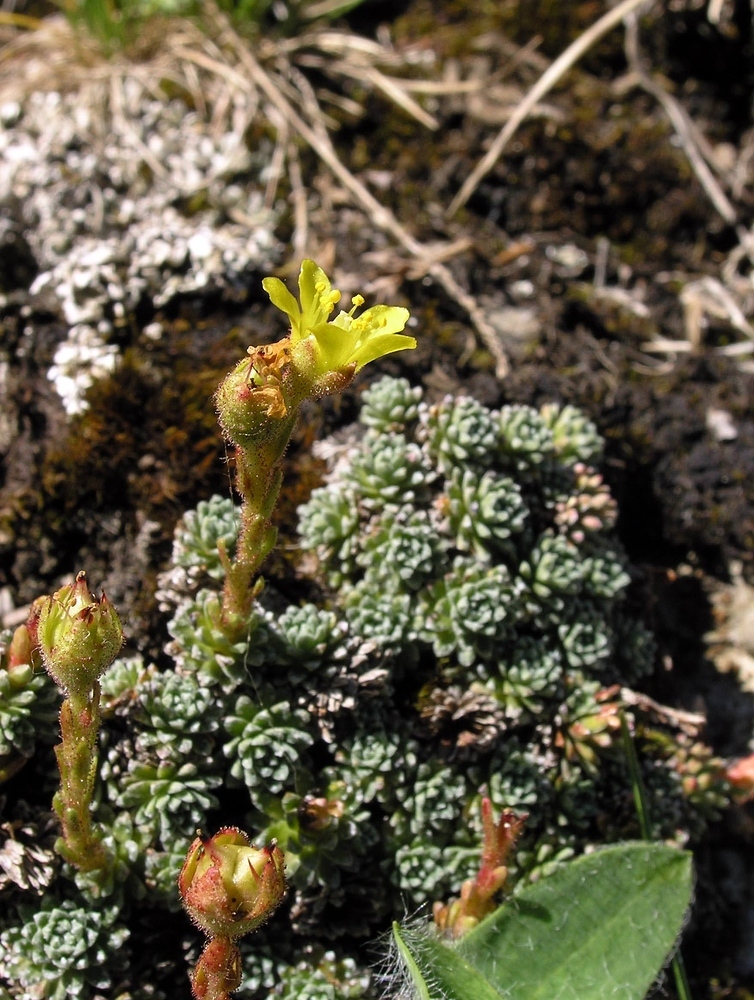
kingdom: Plantae
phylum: Tracheophyta
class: Magnoliopsida
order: Saxifragales
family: Saxifragaceae
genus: Saxifraga
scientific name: Saxifraga aretioides
